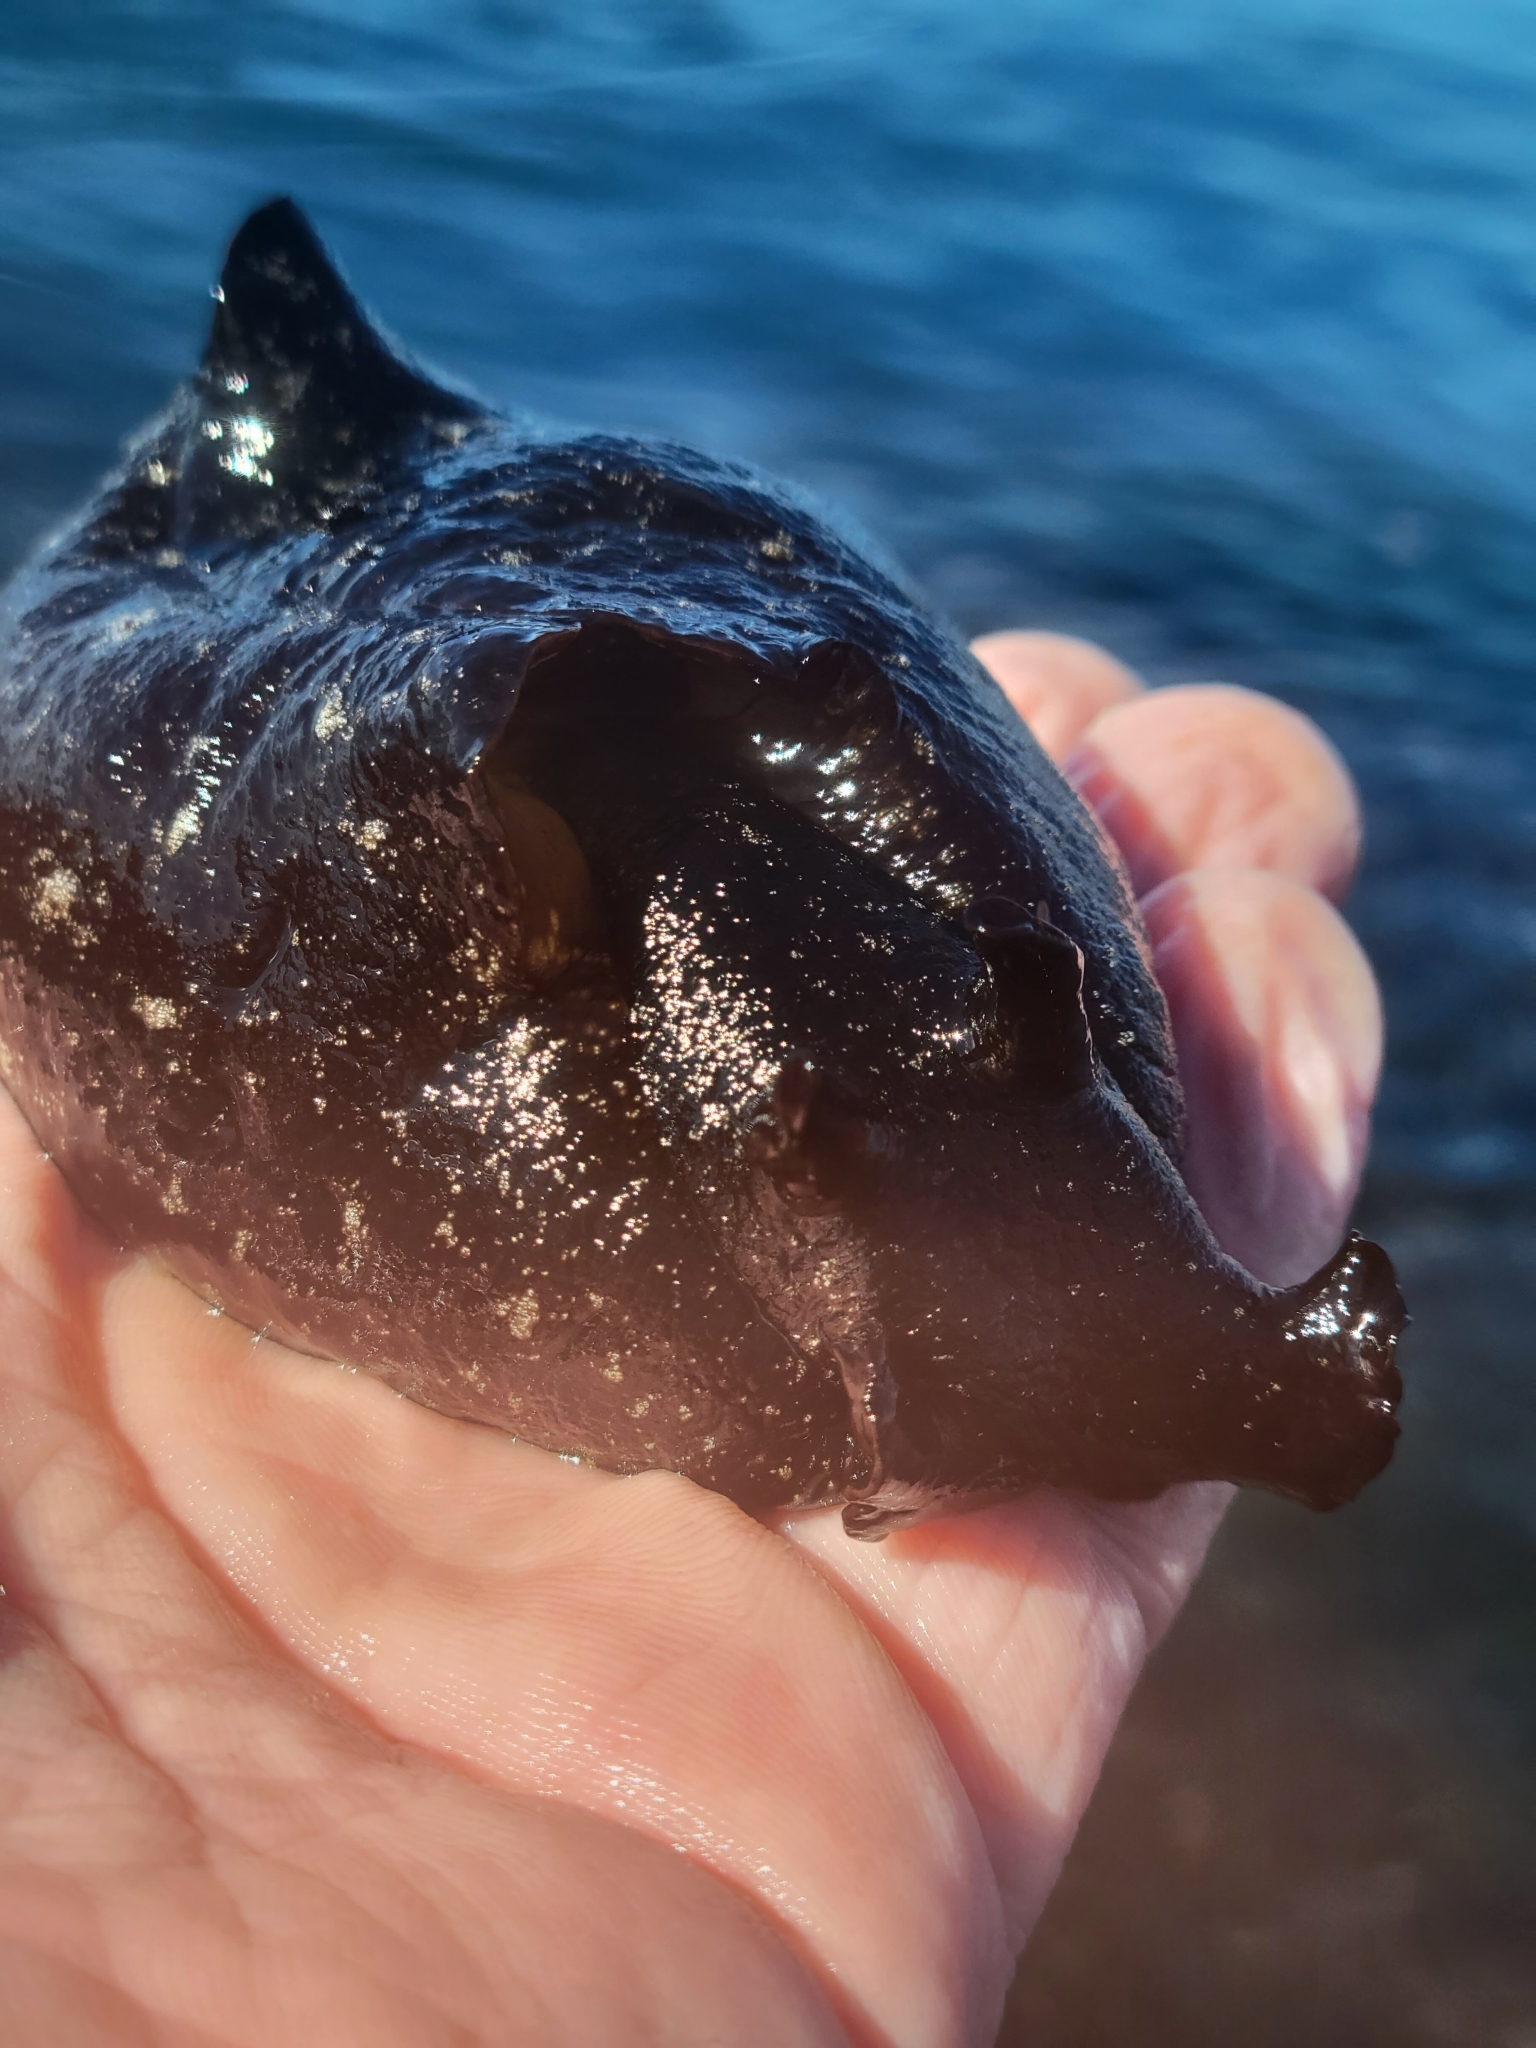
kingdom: Animalia
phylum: Mollusca
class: Gastropoda
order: Aplysiida
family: Aplysiidae
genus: Aplysia
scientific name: Aplysia vaccaria
